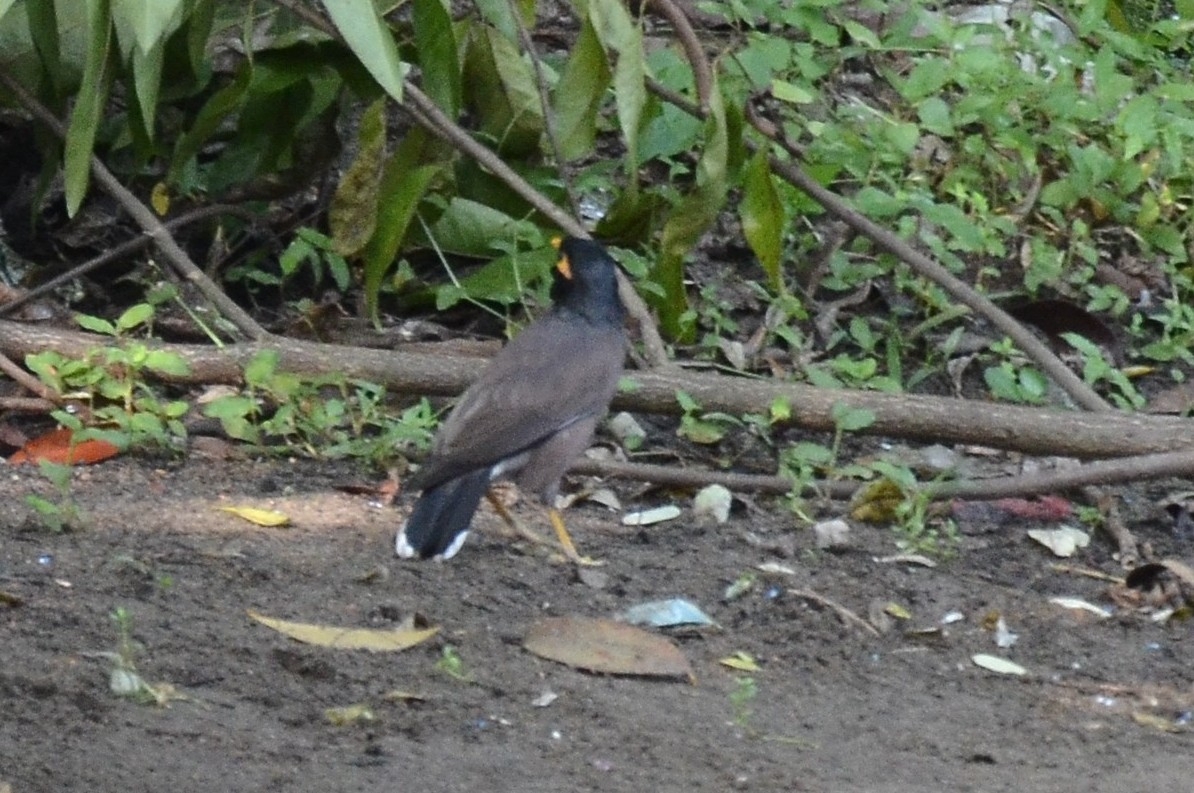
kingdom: Animalia
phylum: Chordata
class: Aves
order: Passeriformes
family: Sturnidae
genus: Acridotheres
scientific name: Acridotheres tristis
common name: Common myna
